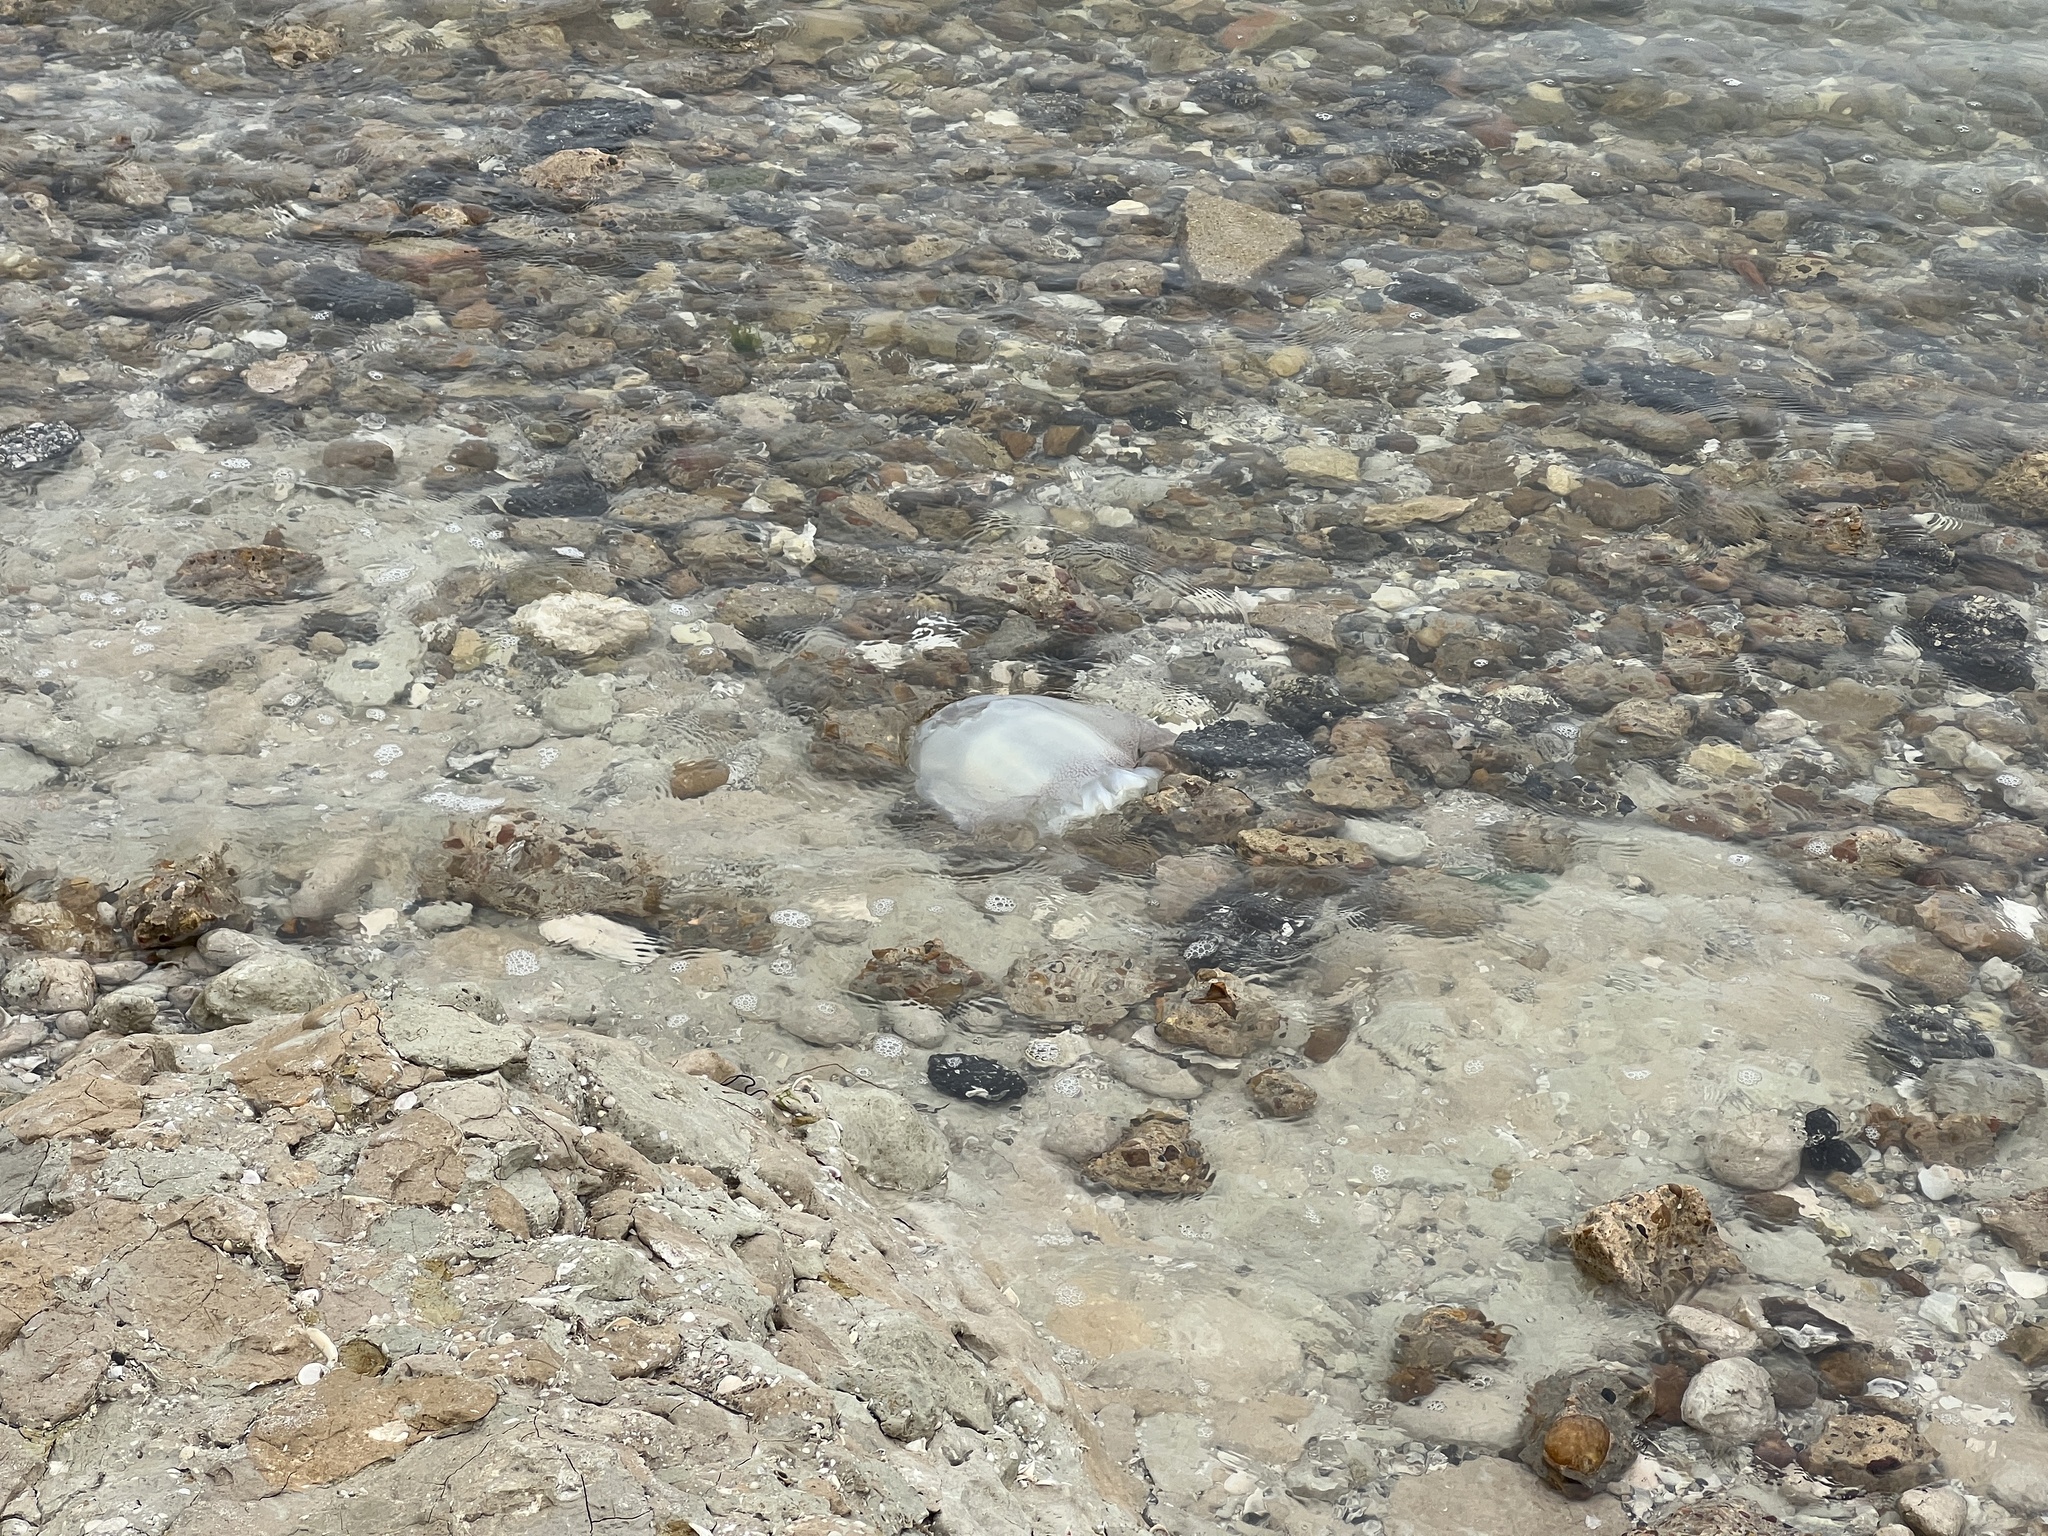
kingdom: Animalia
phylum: Cnidaria
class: Scyphozoa
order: Rhizostomeae
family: Stomolophidae
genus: Stomolophus
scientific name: Stomolophus meleagris
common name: Cabbagehead
